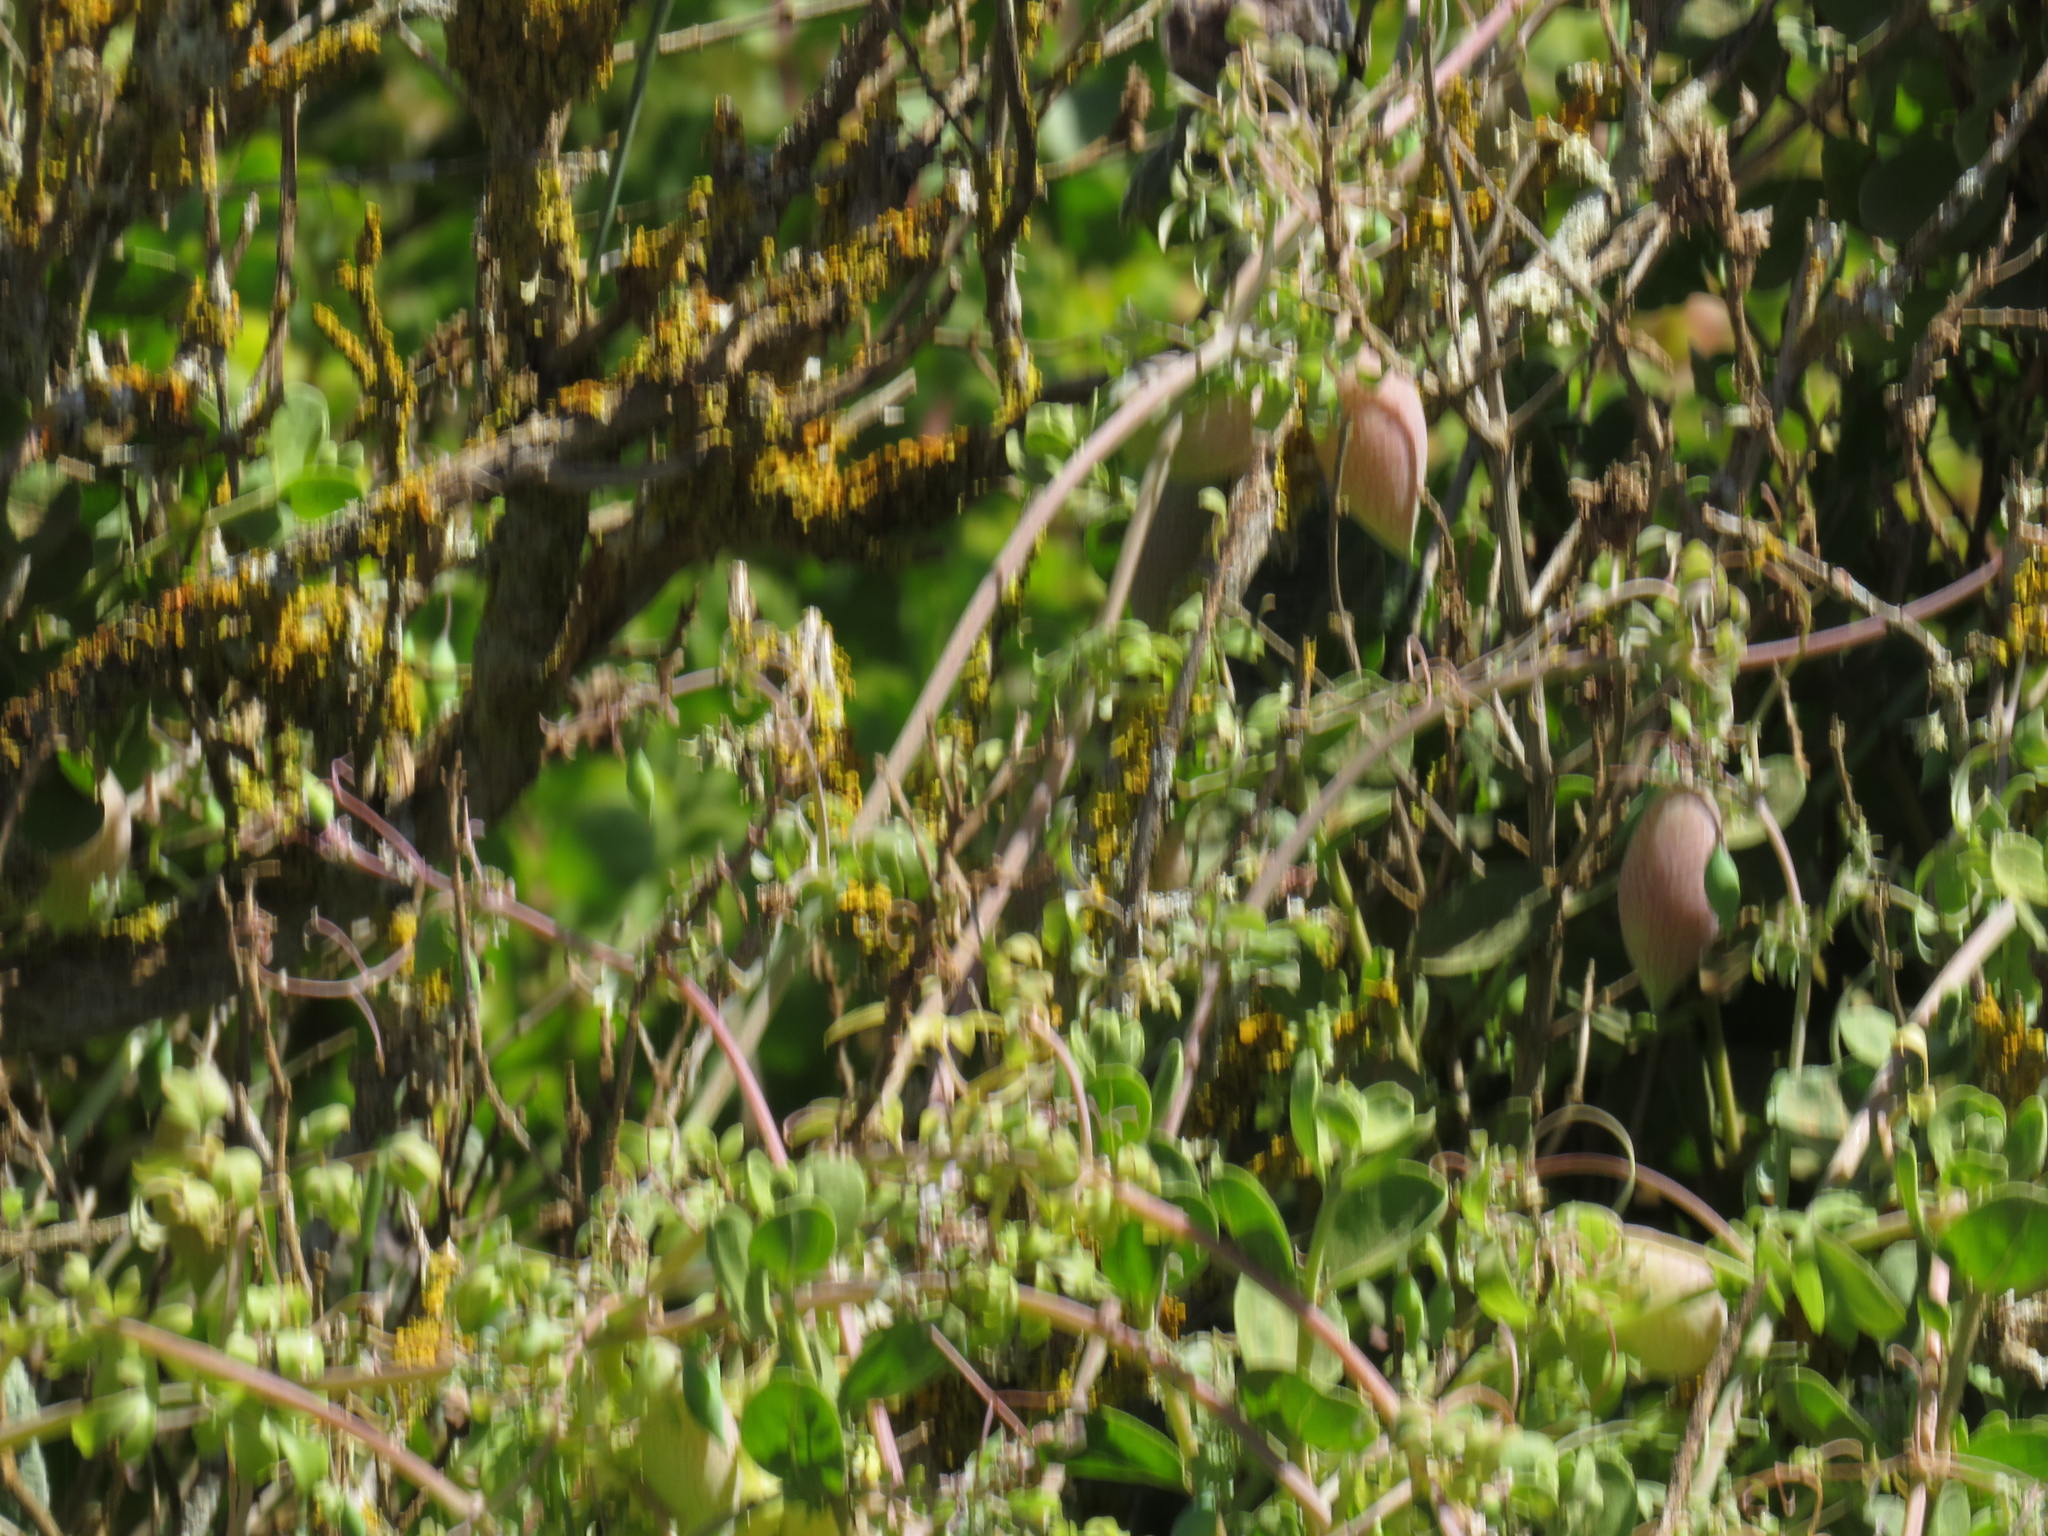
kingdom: Plantae
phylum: Tracheophyta
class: Magnoliopsida
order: Ranunculales
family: Papaveraceae
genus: Cysticapnos
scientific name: Cysticapnos vesicaria
